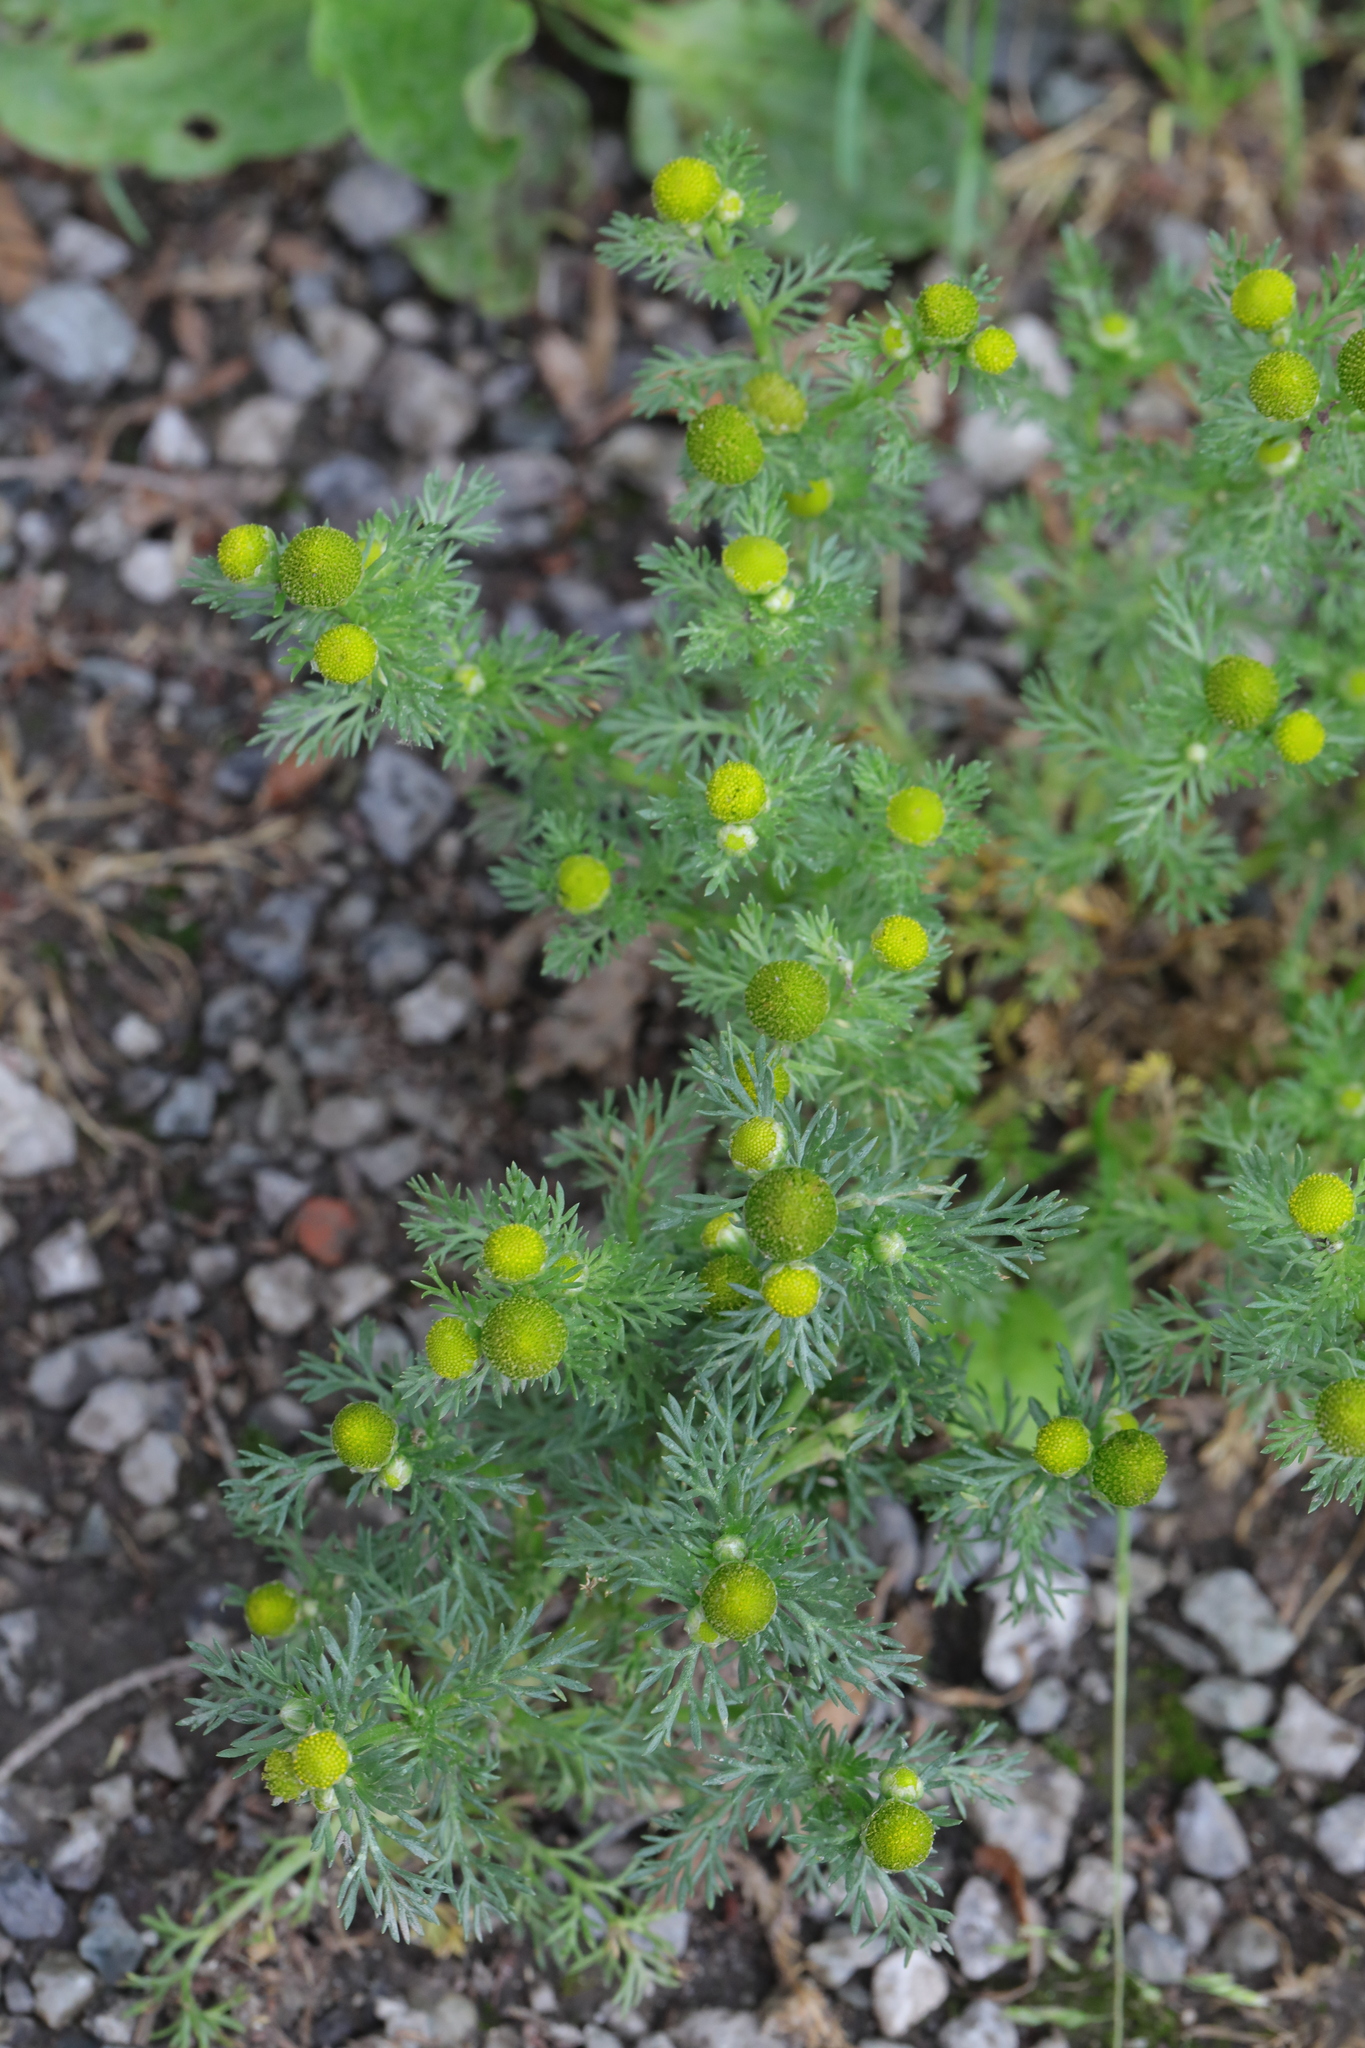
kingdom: Plantae
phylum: Tracheophyta
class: Magnoliopsida
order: Asterales
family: Asteraceae
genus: Matricaria
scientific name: Matricaria discoidea
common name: Disc mayweed
